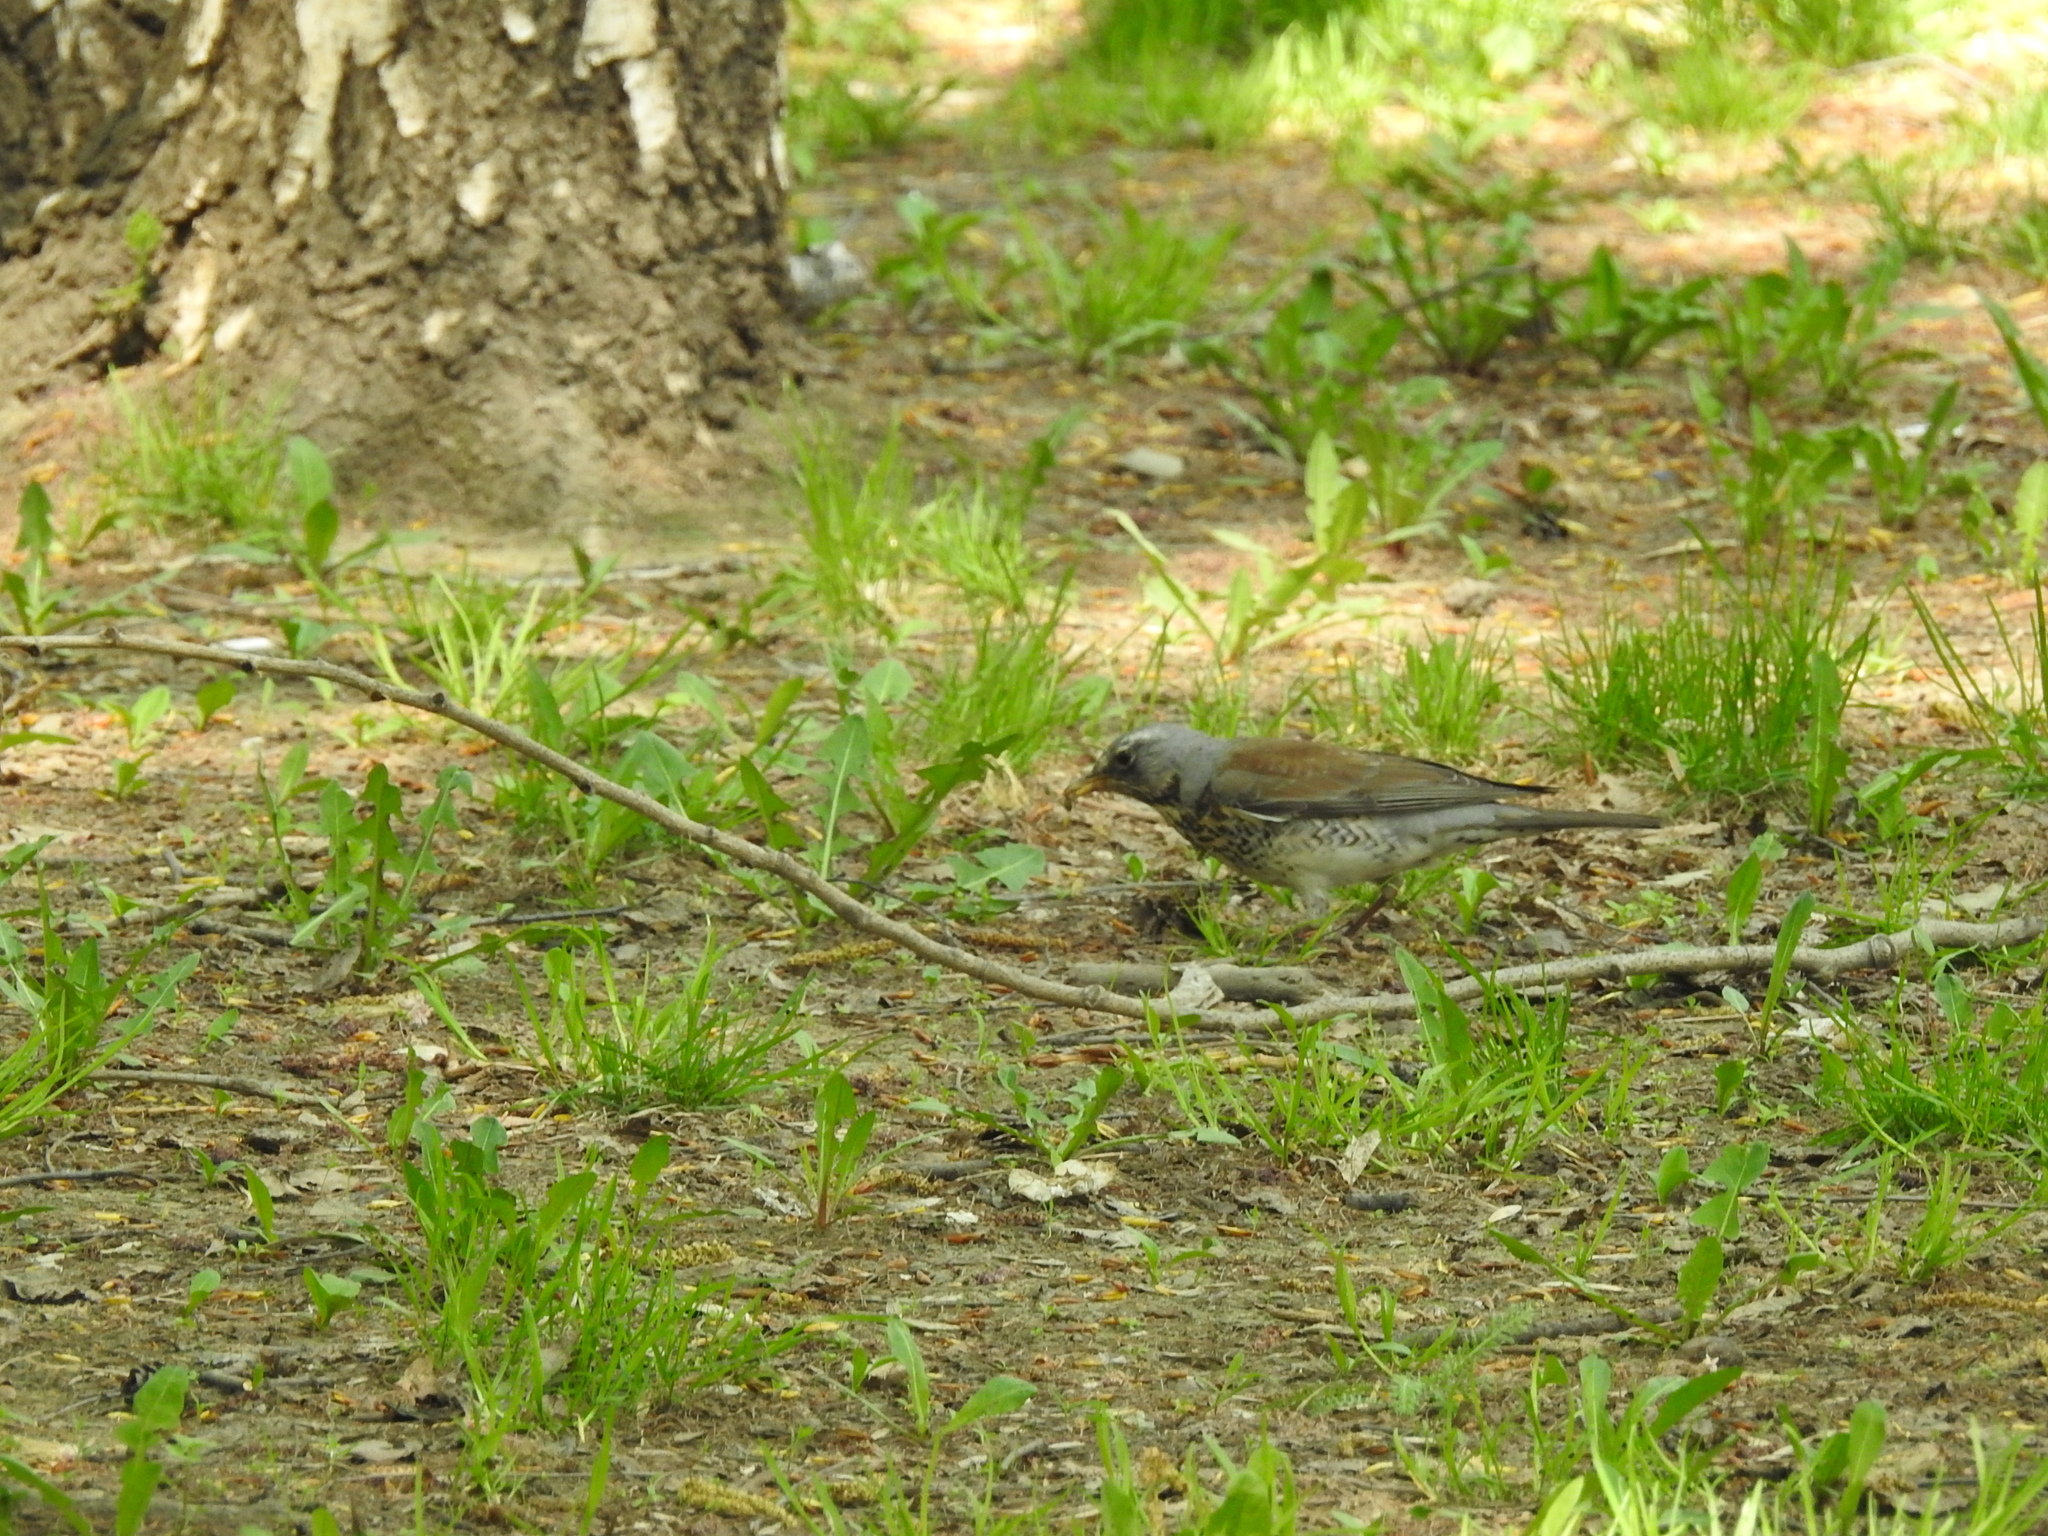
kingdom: Animalia
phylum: Chordata
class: Aves
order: Passeriformes
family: Turdidae
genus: Turdus
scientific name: Turdus pilaris
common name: Fieldfare
